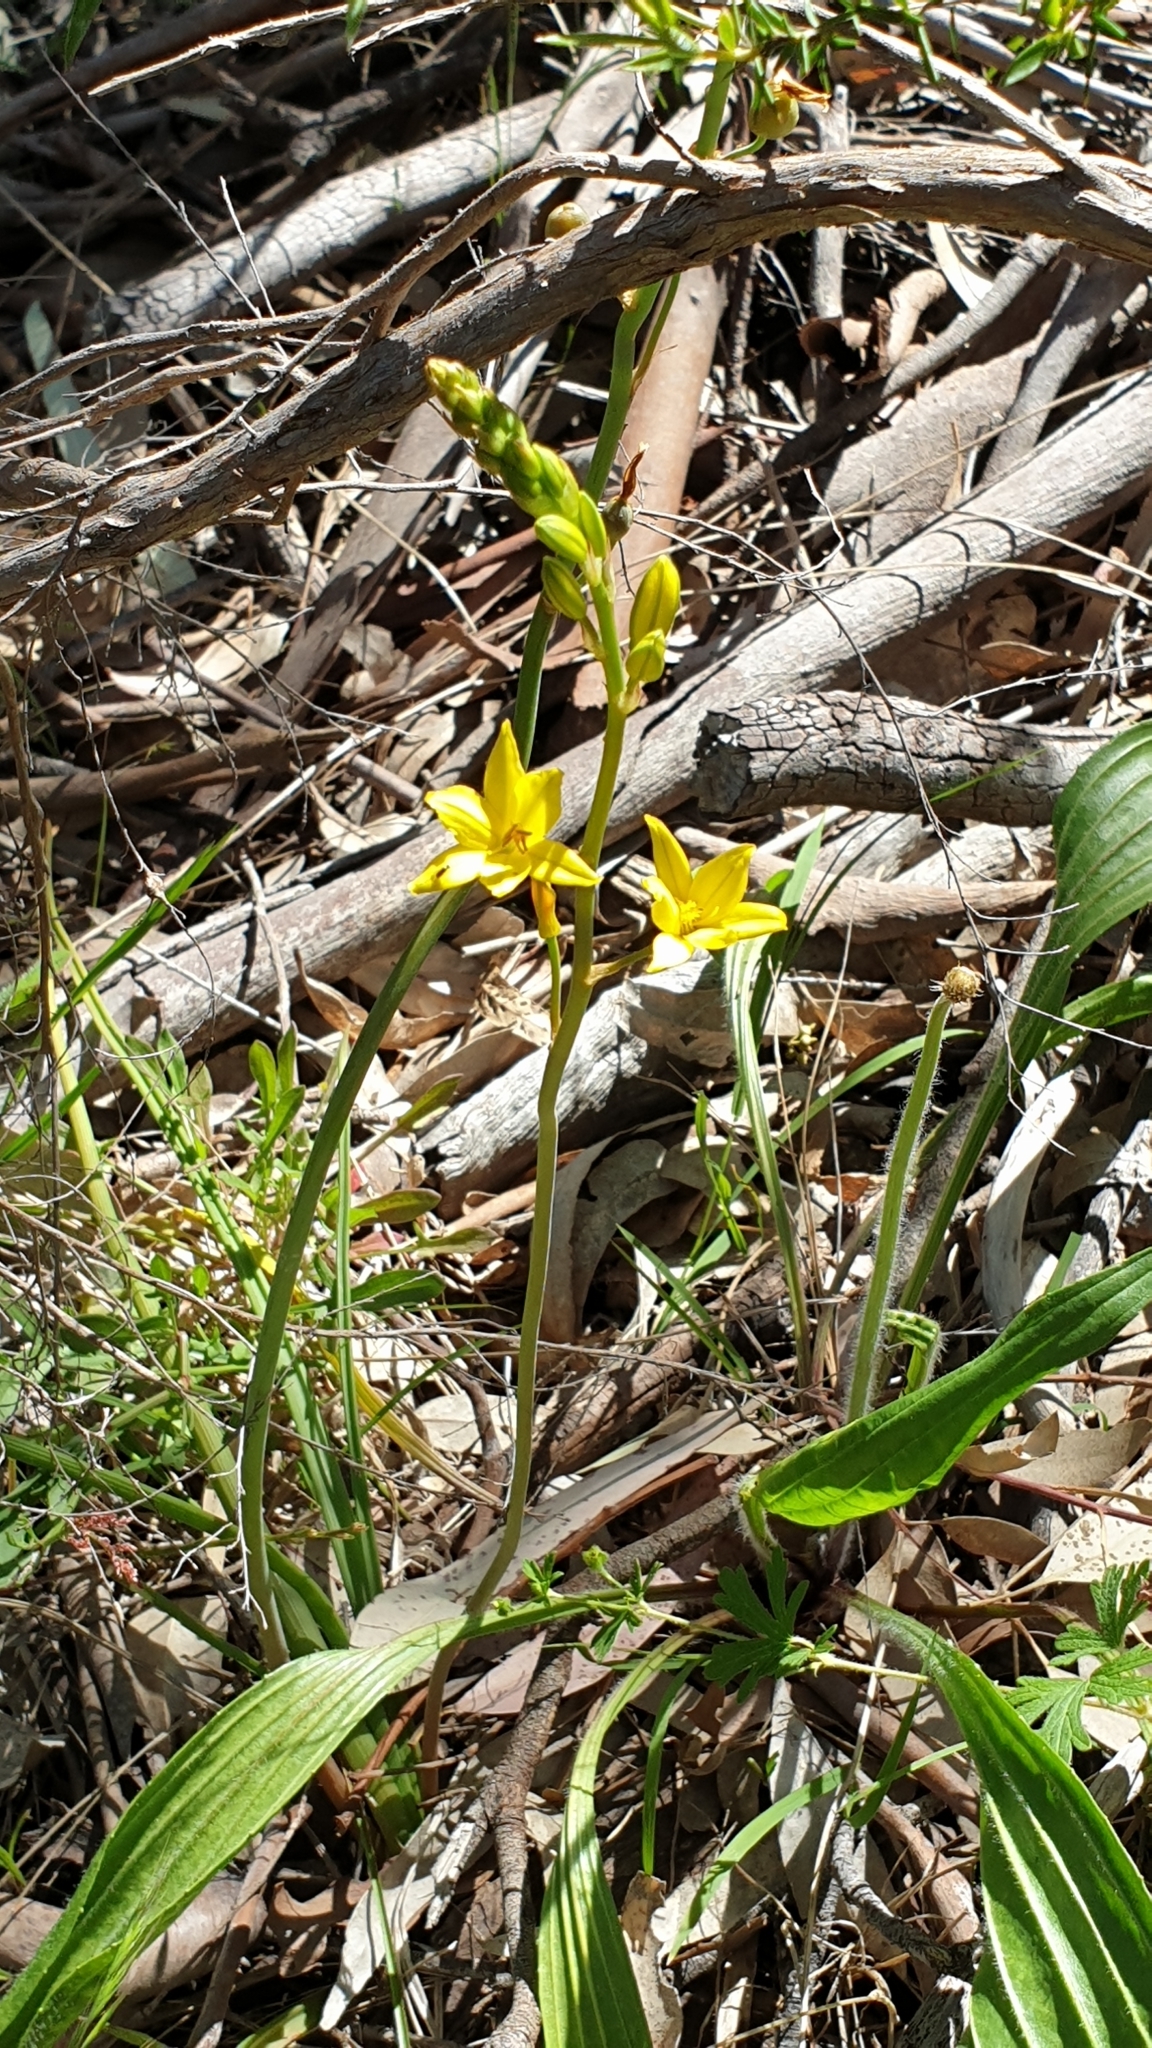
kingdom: Plantae
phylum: Tracheophyta
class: Liliopsida
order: Asparagales
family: Asphodelaceae
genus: Bulbine
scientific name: Bulbine bulbosa
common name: Golden-lily
